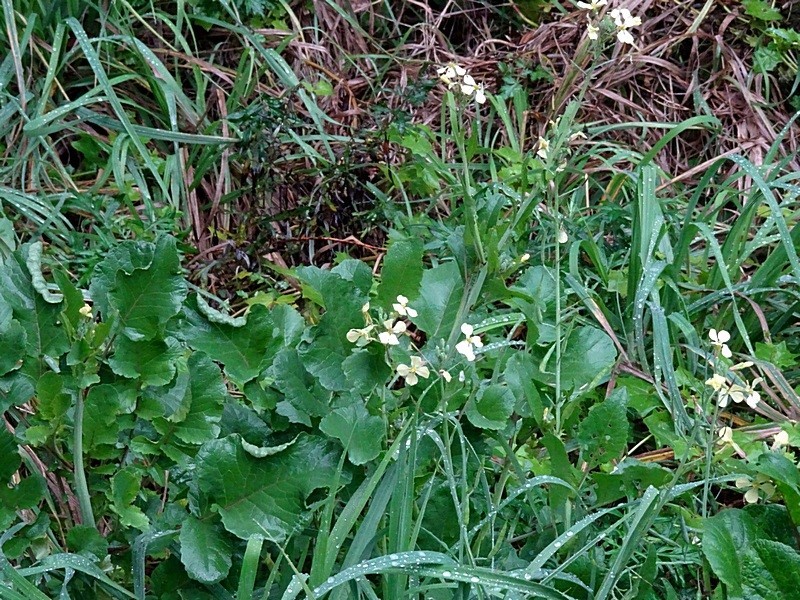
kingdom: Plantae
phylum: Tracheophyta
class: Magnoliopsida
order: Brassicales
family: Brassicaceae
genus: Raphanus
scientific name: Raphanus raphanistrum
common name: Wild radish
